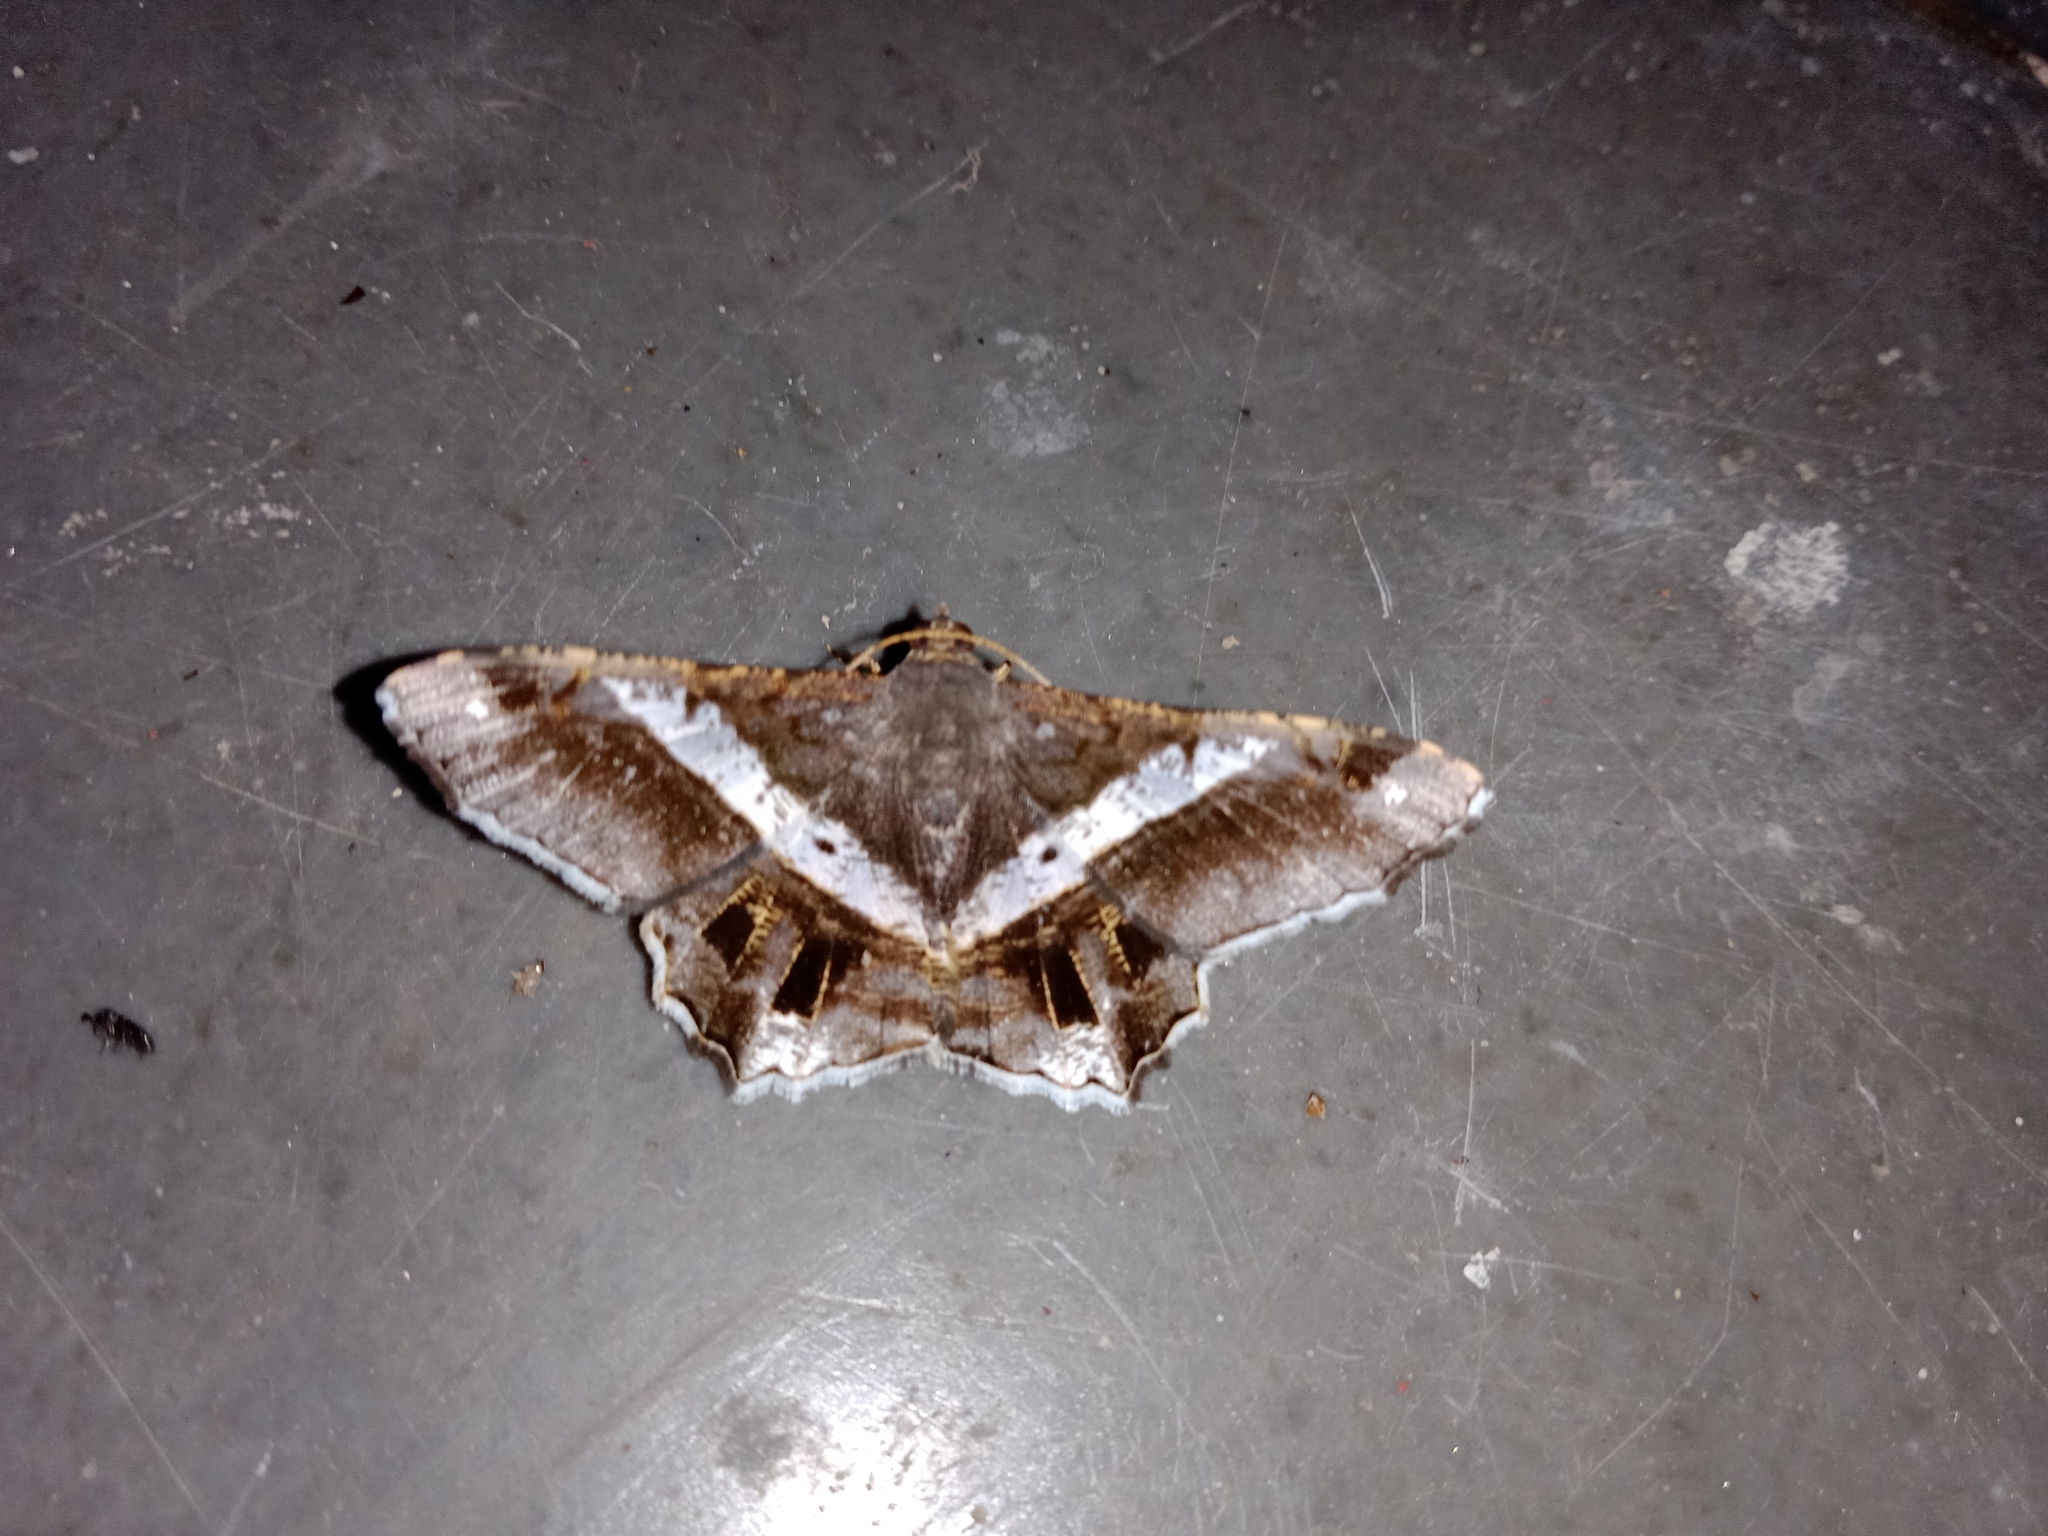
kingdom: Animalia
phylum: Arthropoda
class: Insecta
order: Lepidoptera
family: Geometridae
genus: Chiasmia
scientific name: Chiasmia nora
